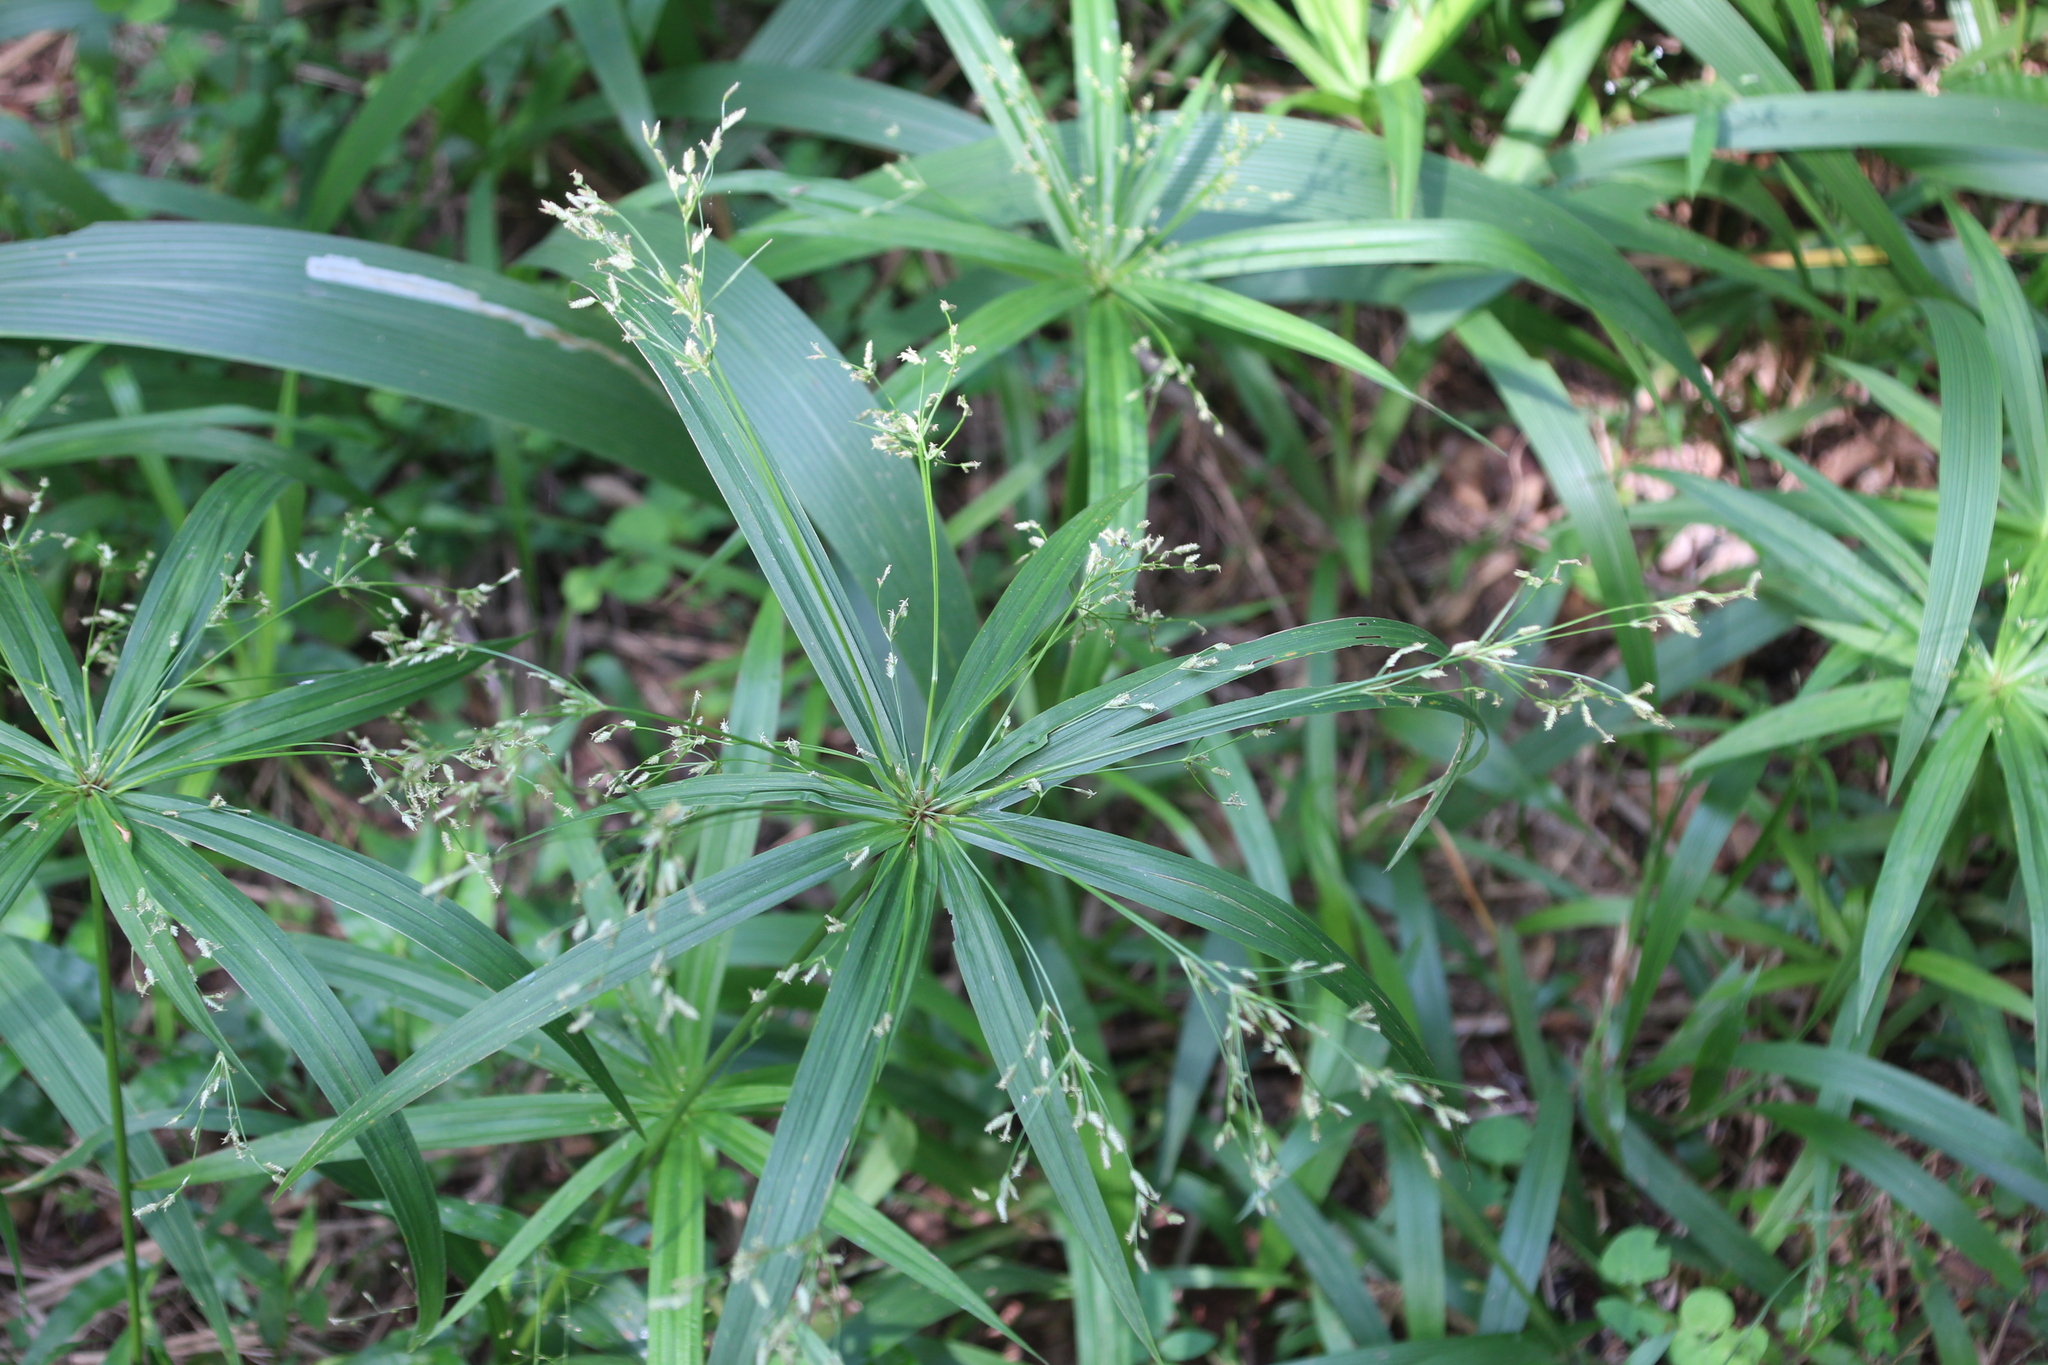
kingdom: Plantae
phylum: Tracheophyta
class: Liliopsida
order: Poales
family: Cyperaceae
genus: Cyperus
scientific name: Cyperus albostriatus
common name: Dwarf umbrella-grass
